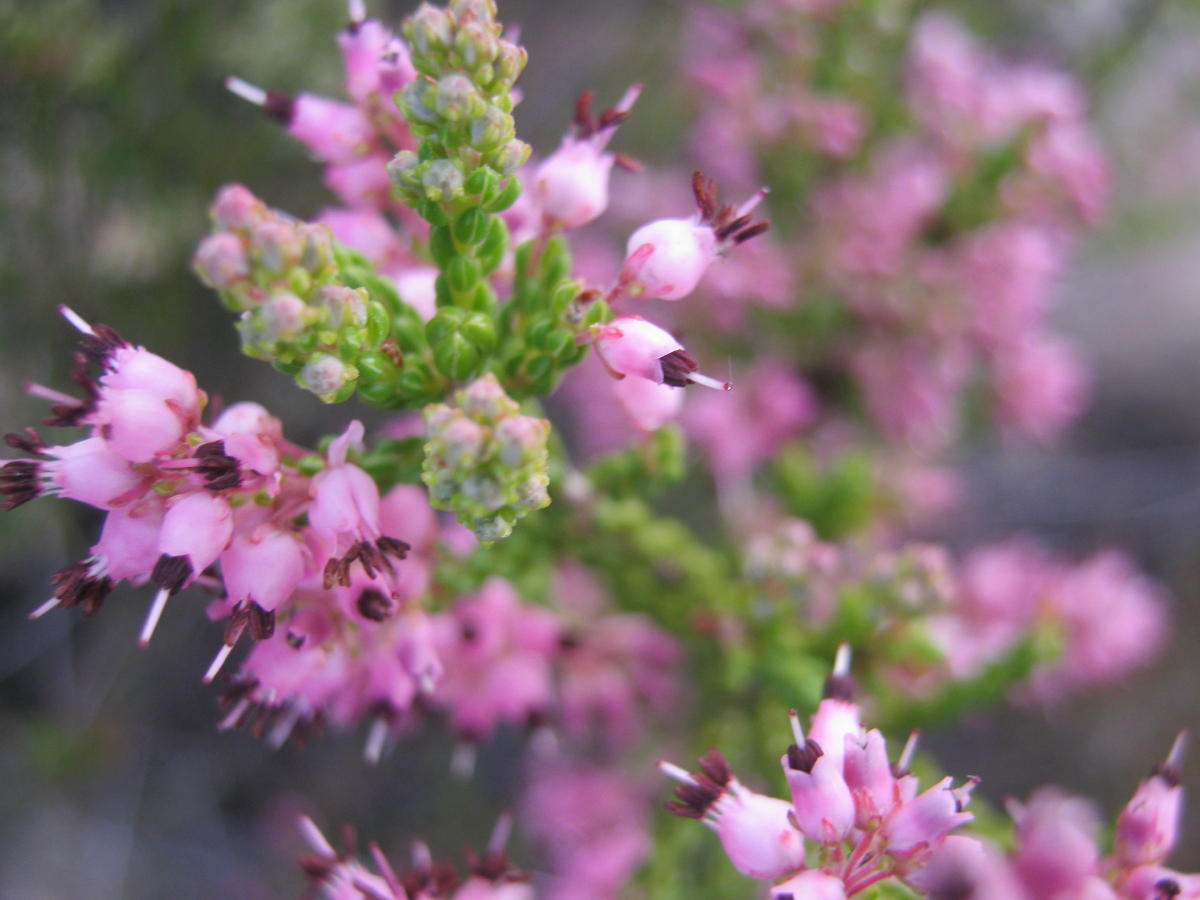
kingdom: Plantae
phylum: Tracheophyta
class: Magnoliopsida
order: Ericales
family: Ericaceae
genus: Erica
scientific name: Erica petraea
